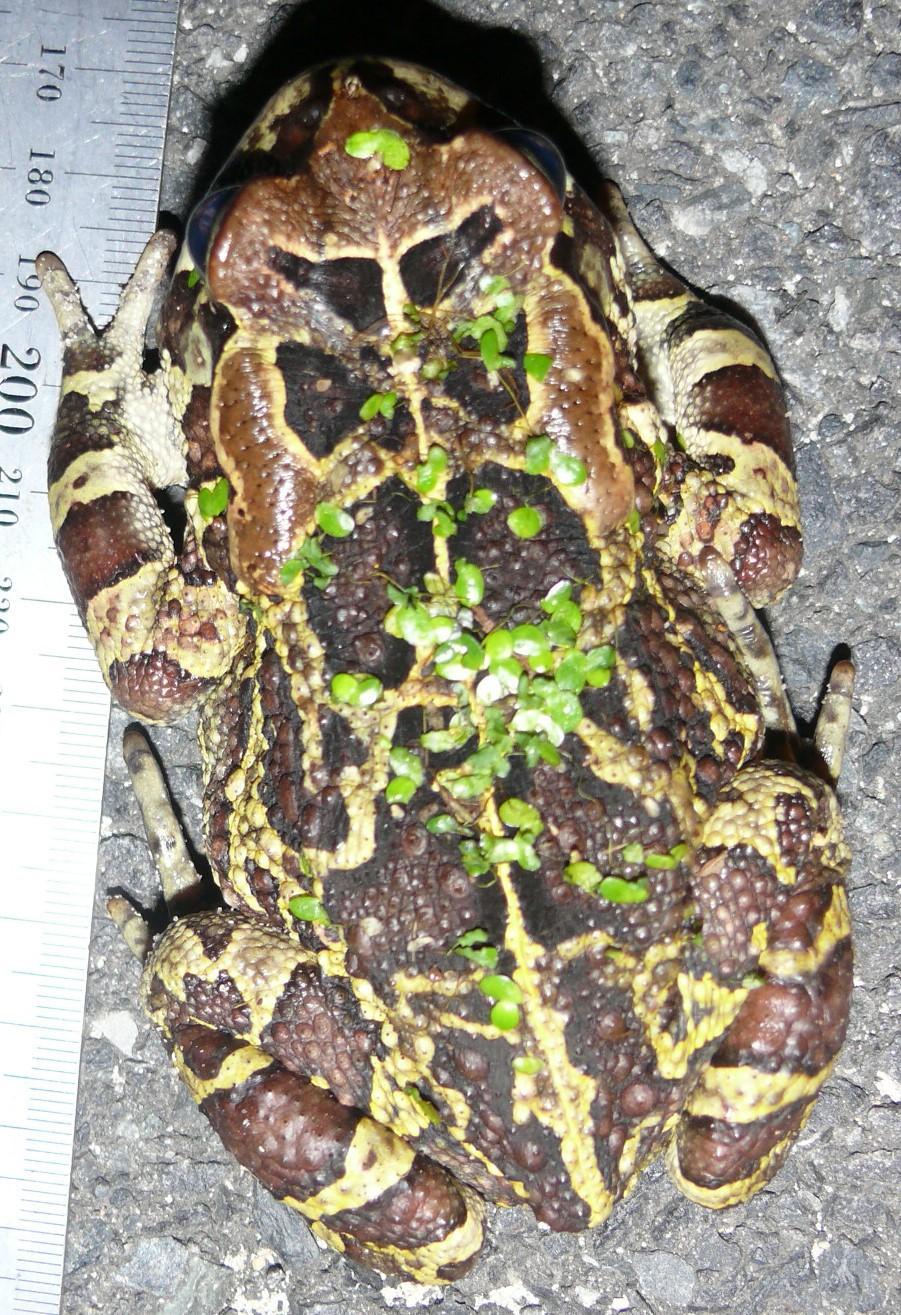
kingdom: Animalia
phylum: Chordata
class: Amphibia
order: Anura
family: Bufonidae
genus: Sclerophrys
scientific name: Sclerophrys pantherina
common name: Panther toad
